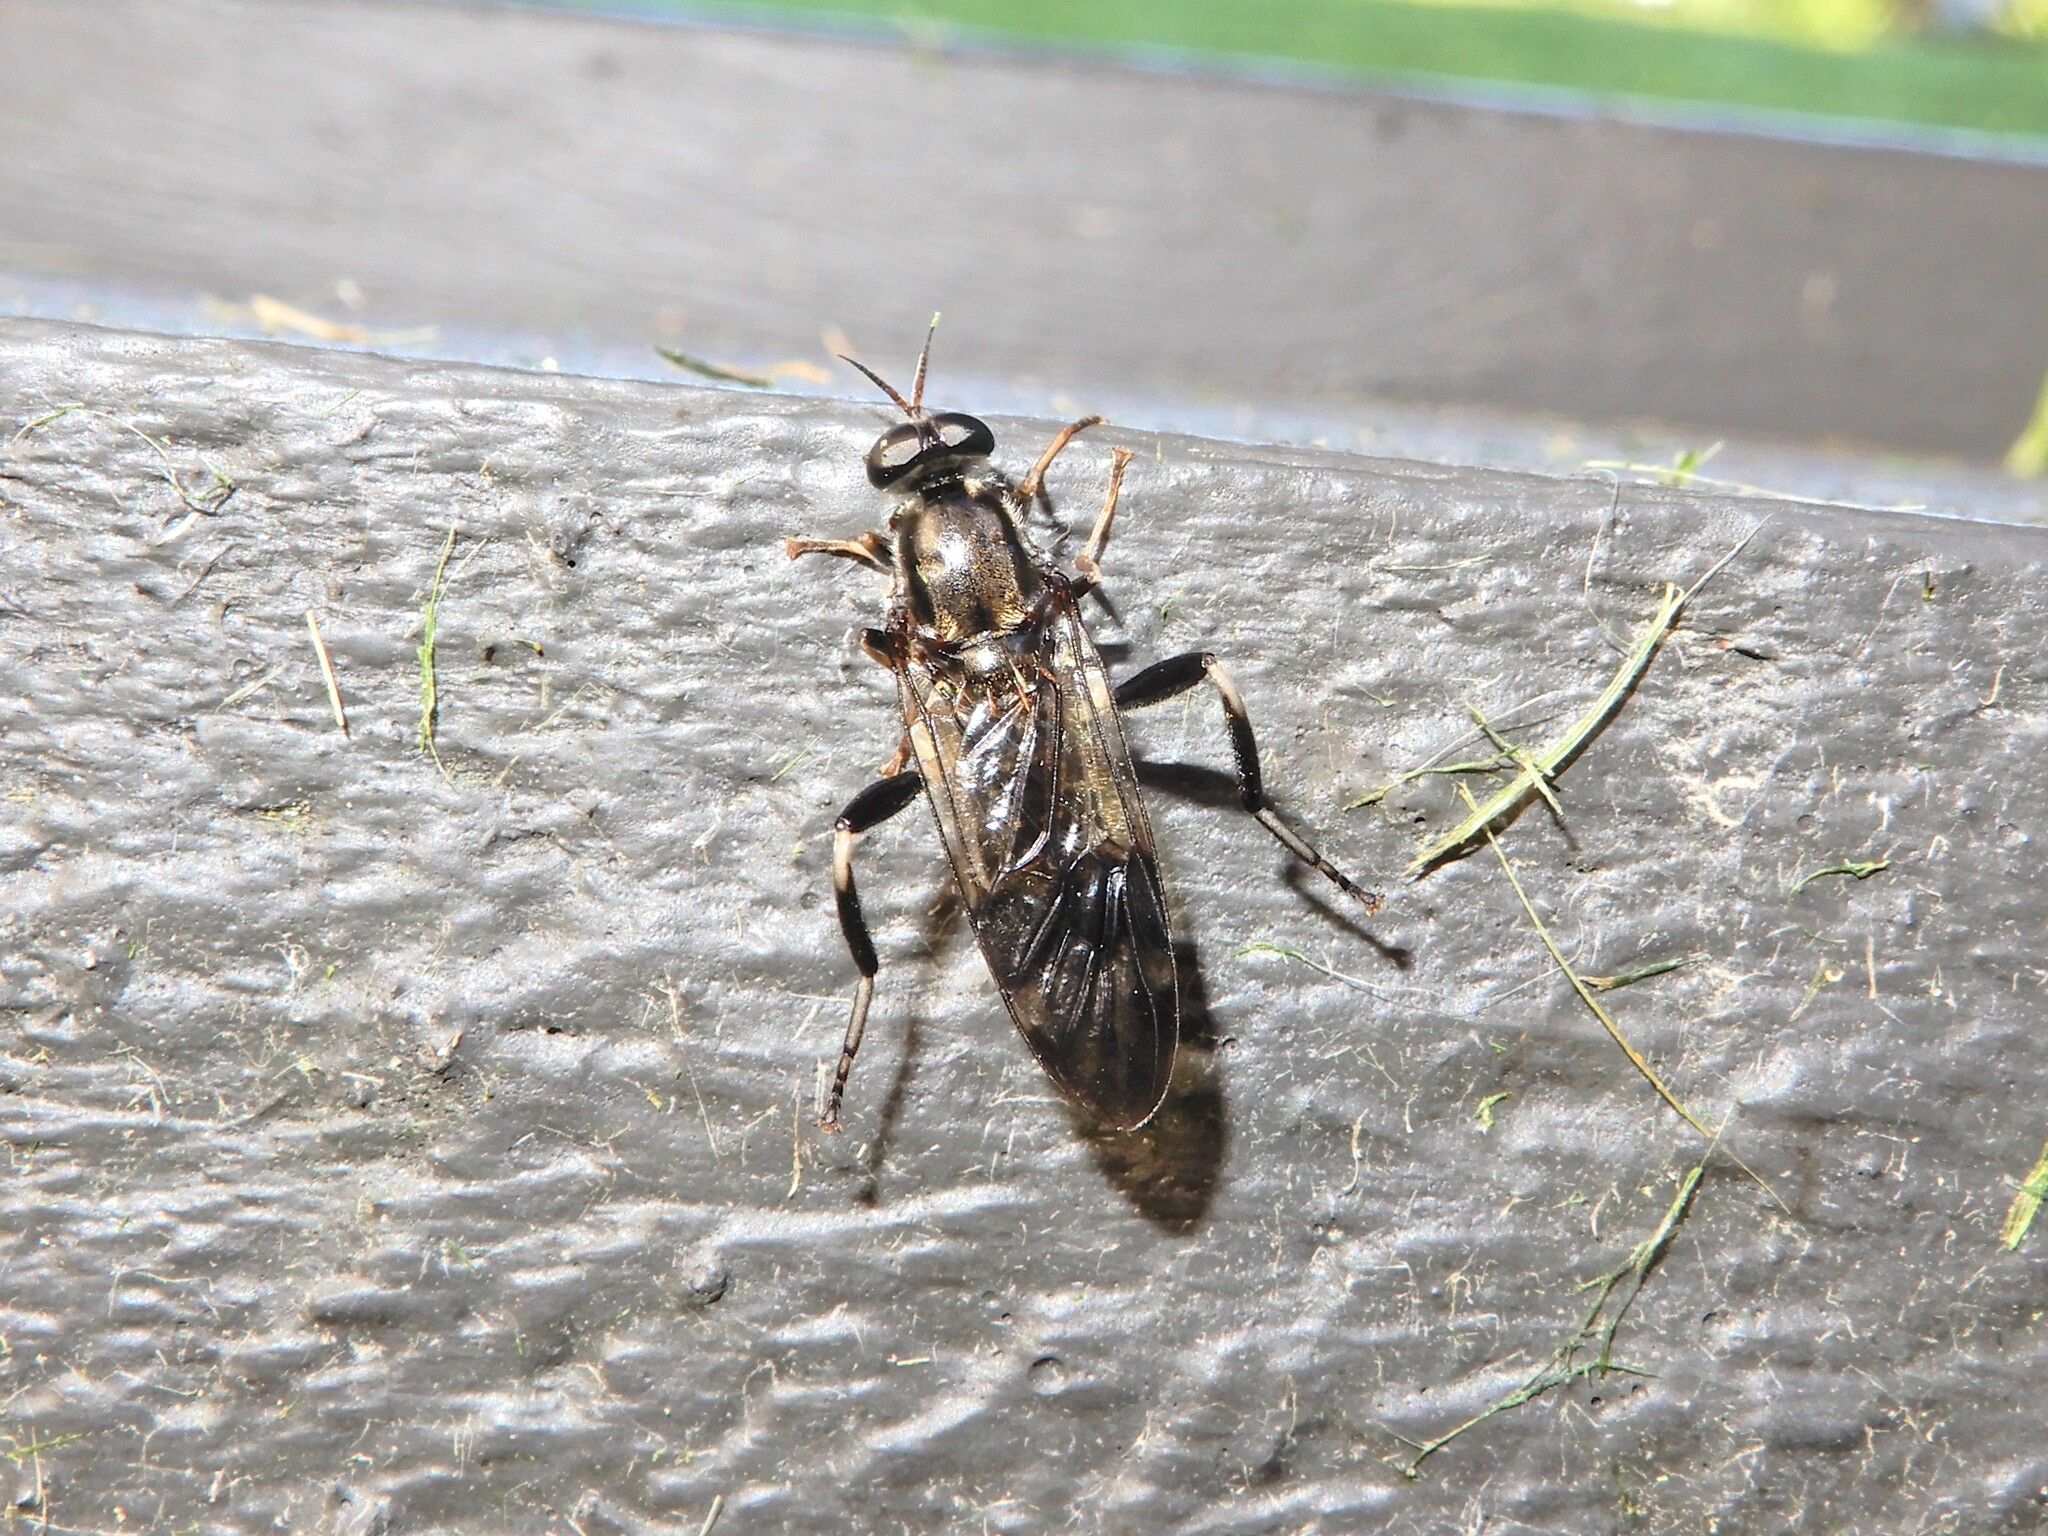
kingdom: Animalia
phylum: Arthropoda
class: Insecta
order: Diptera
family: Stratiomyidae
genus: Exaireta
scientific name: Exaireta spinigera
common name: Blue soldier fly
